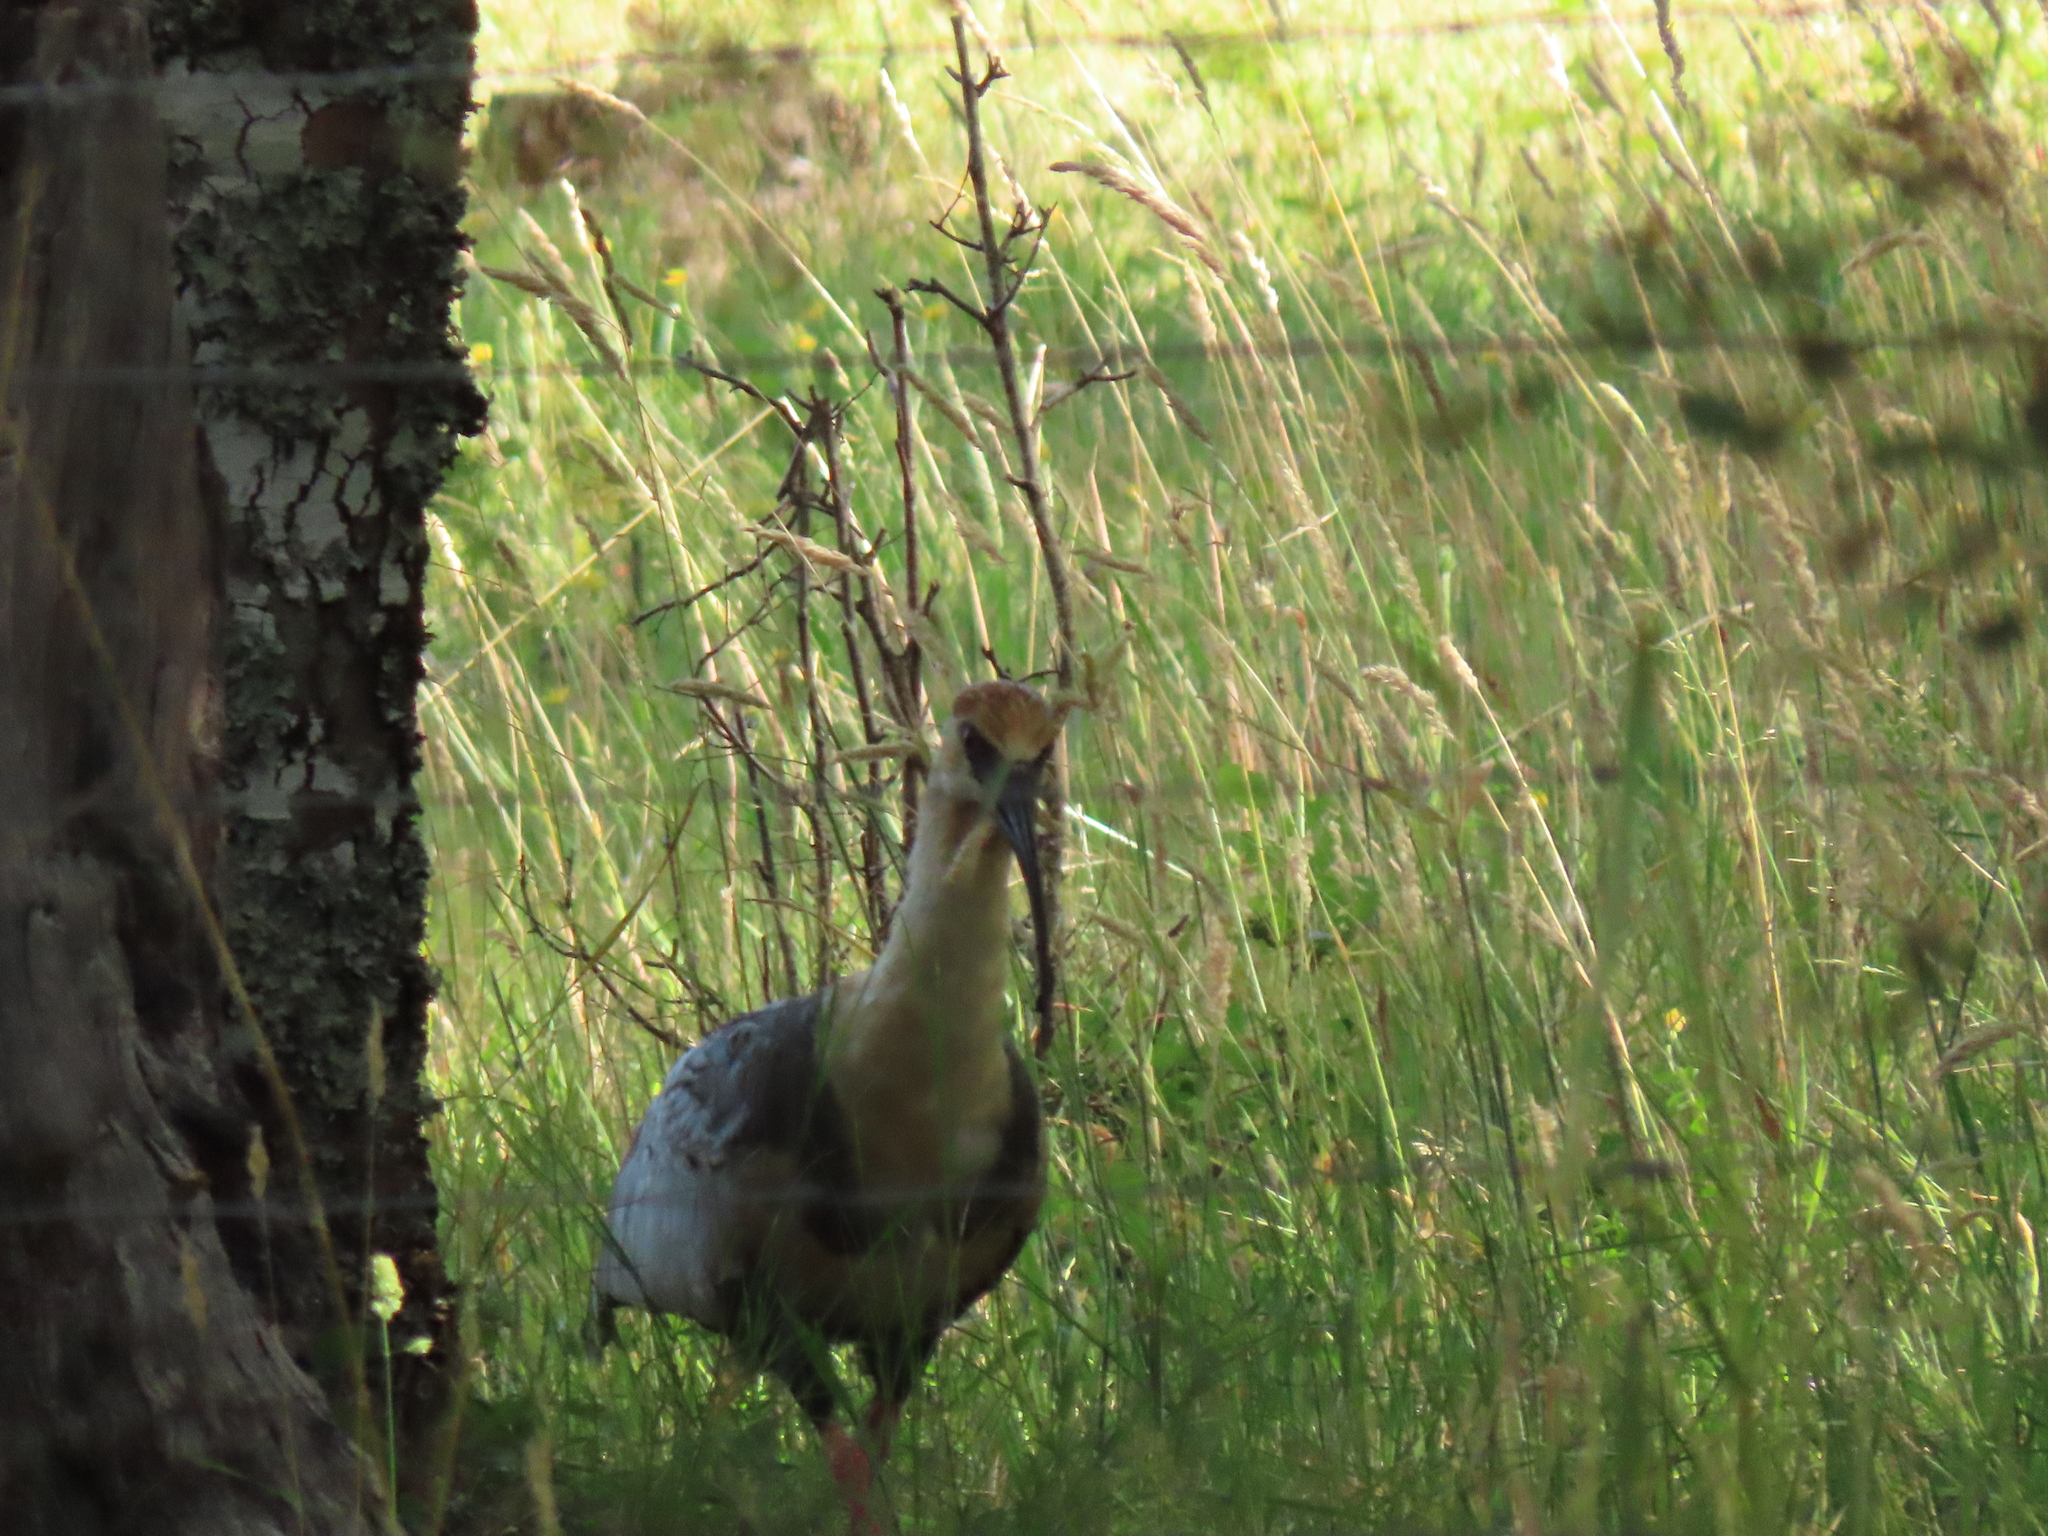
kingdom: Animalia
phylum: Chordata
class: Aves
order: Pelecaniformes
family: Threskiornithidae
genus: Theristicus
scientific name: Theristicus melanopis
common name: Black-faced ibis
